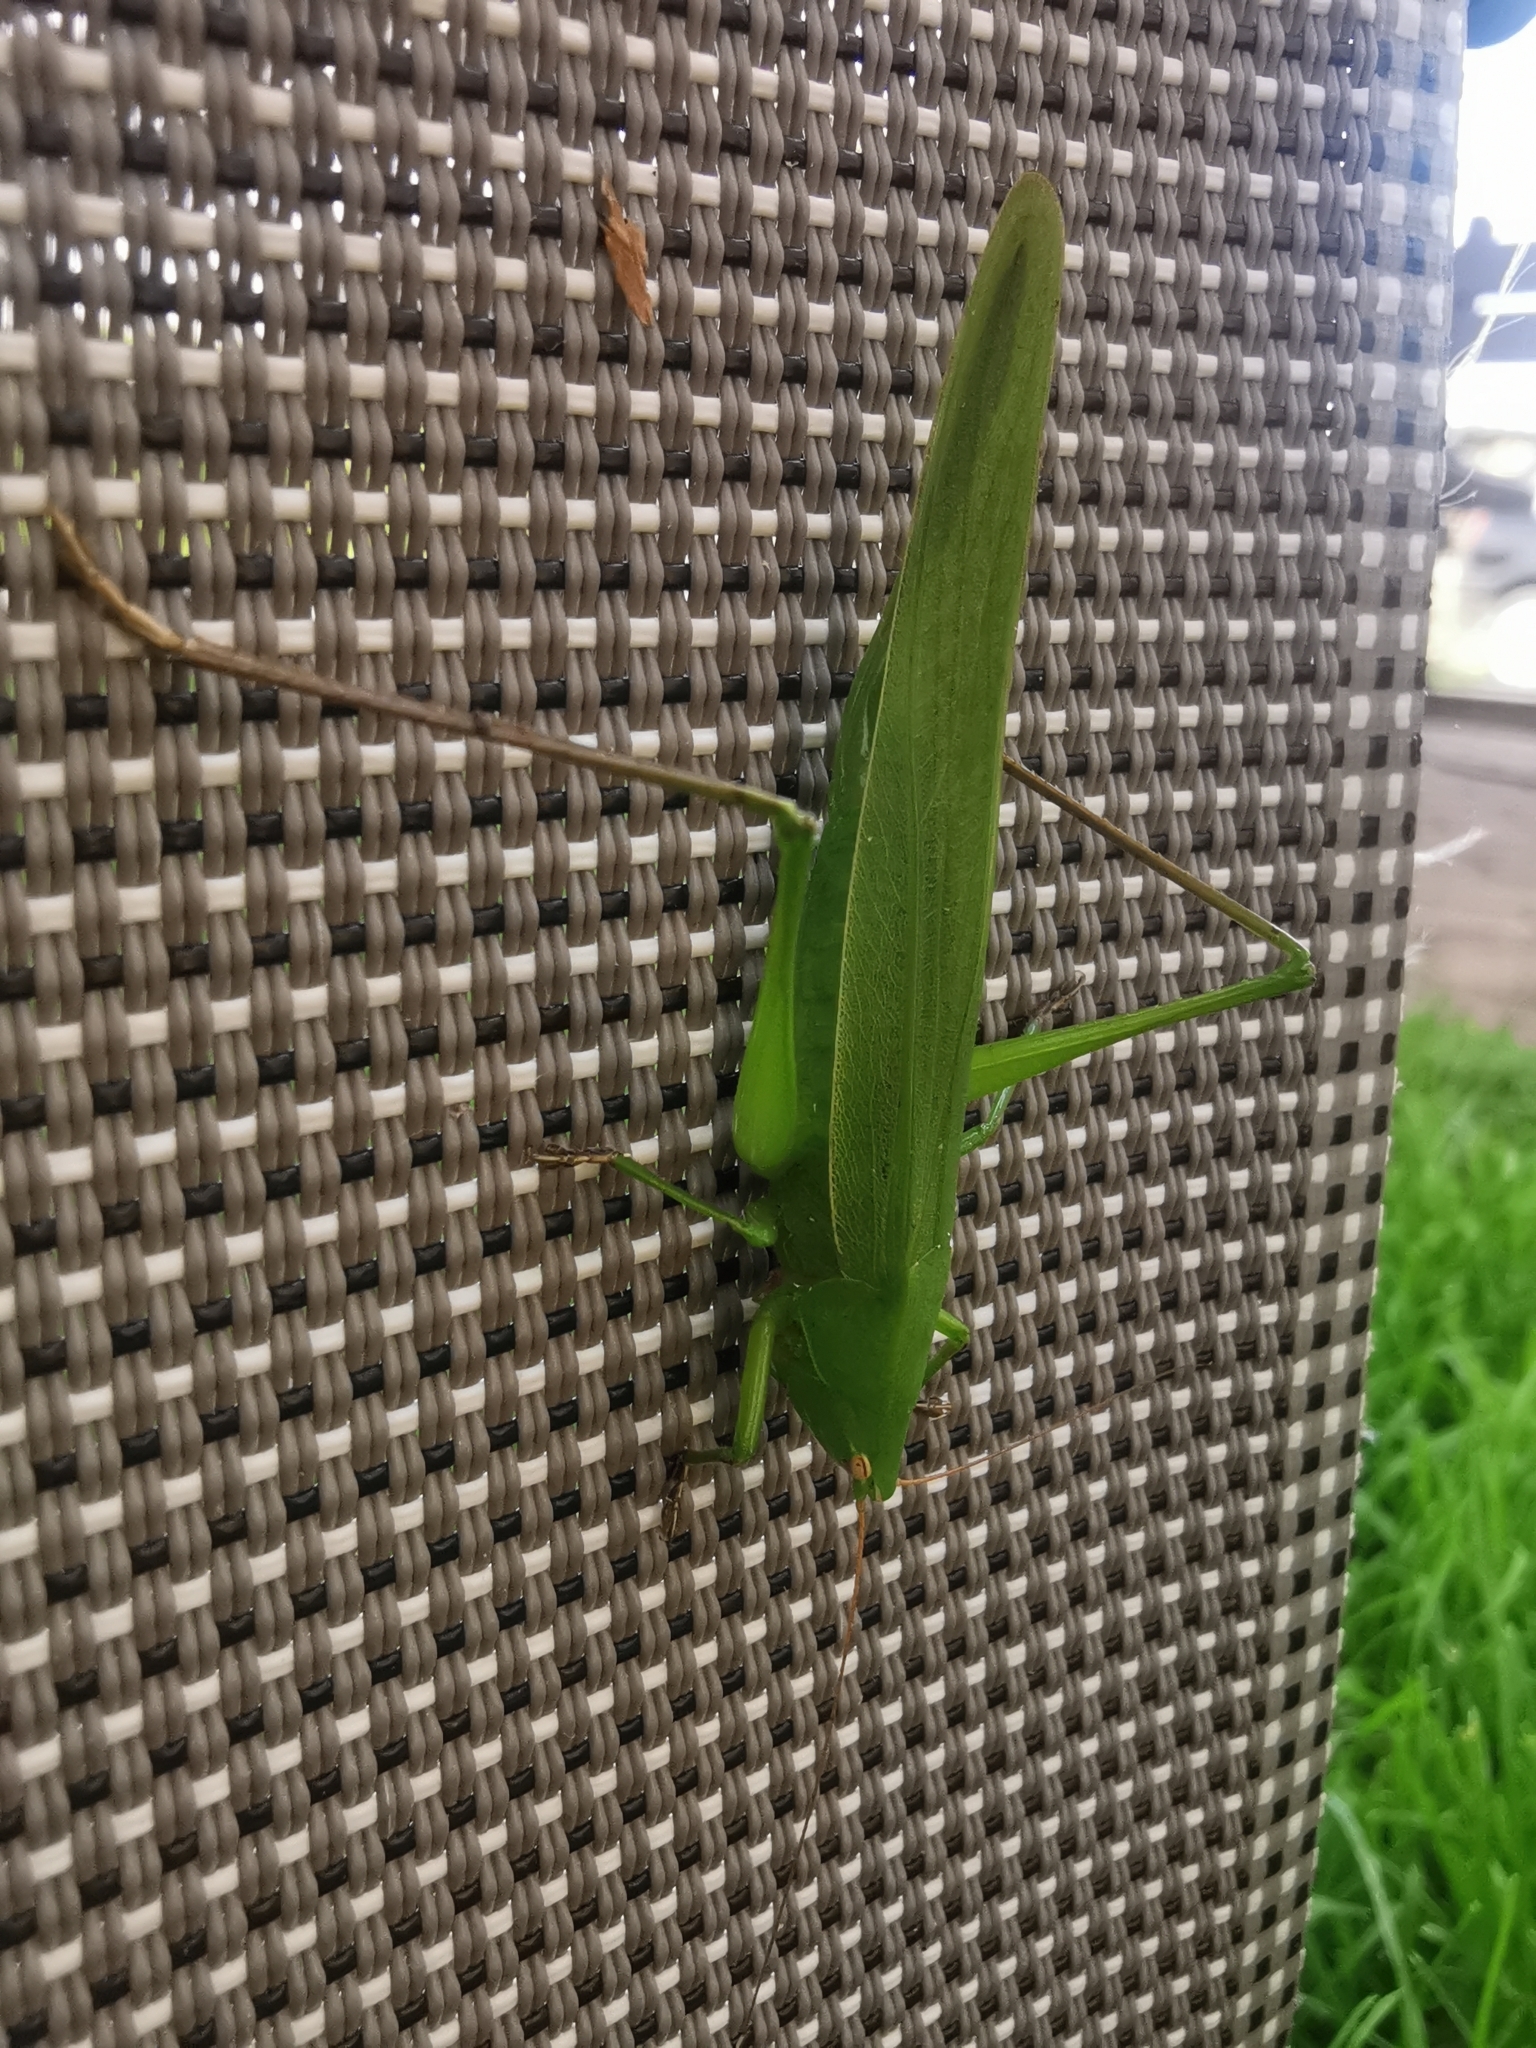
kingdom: Animalia
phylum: Arthropoda
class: Insecta
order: Orthoptera
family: Tettigoniidae
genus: Ruspolia
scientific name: Ruspolia nitidula
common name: Large conehead
